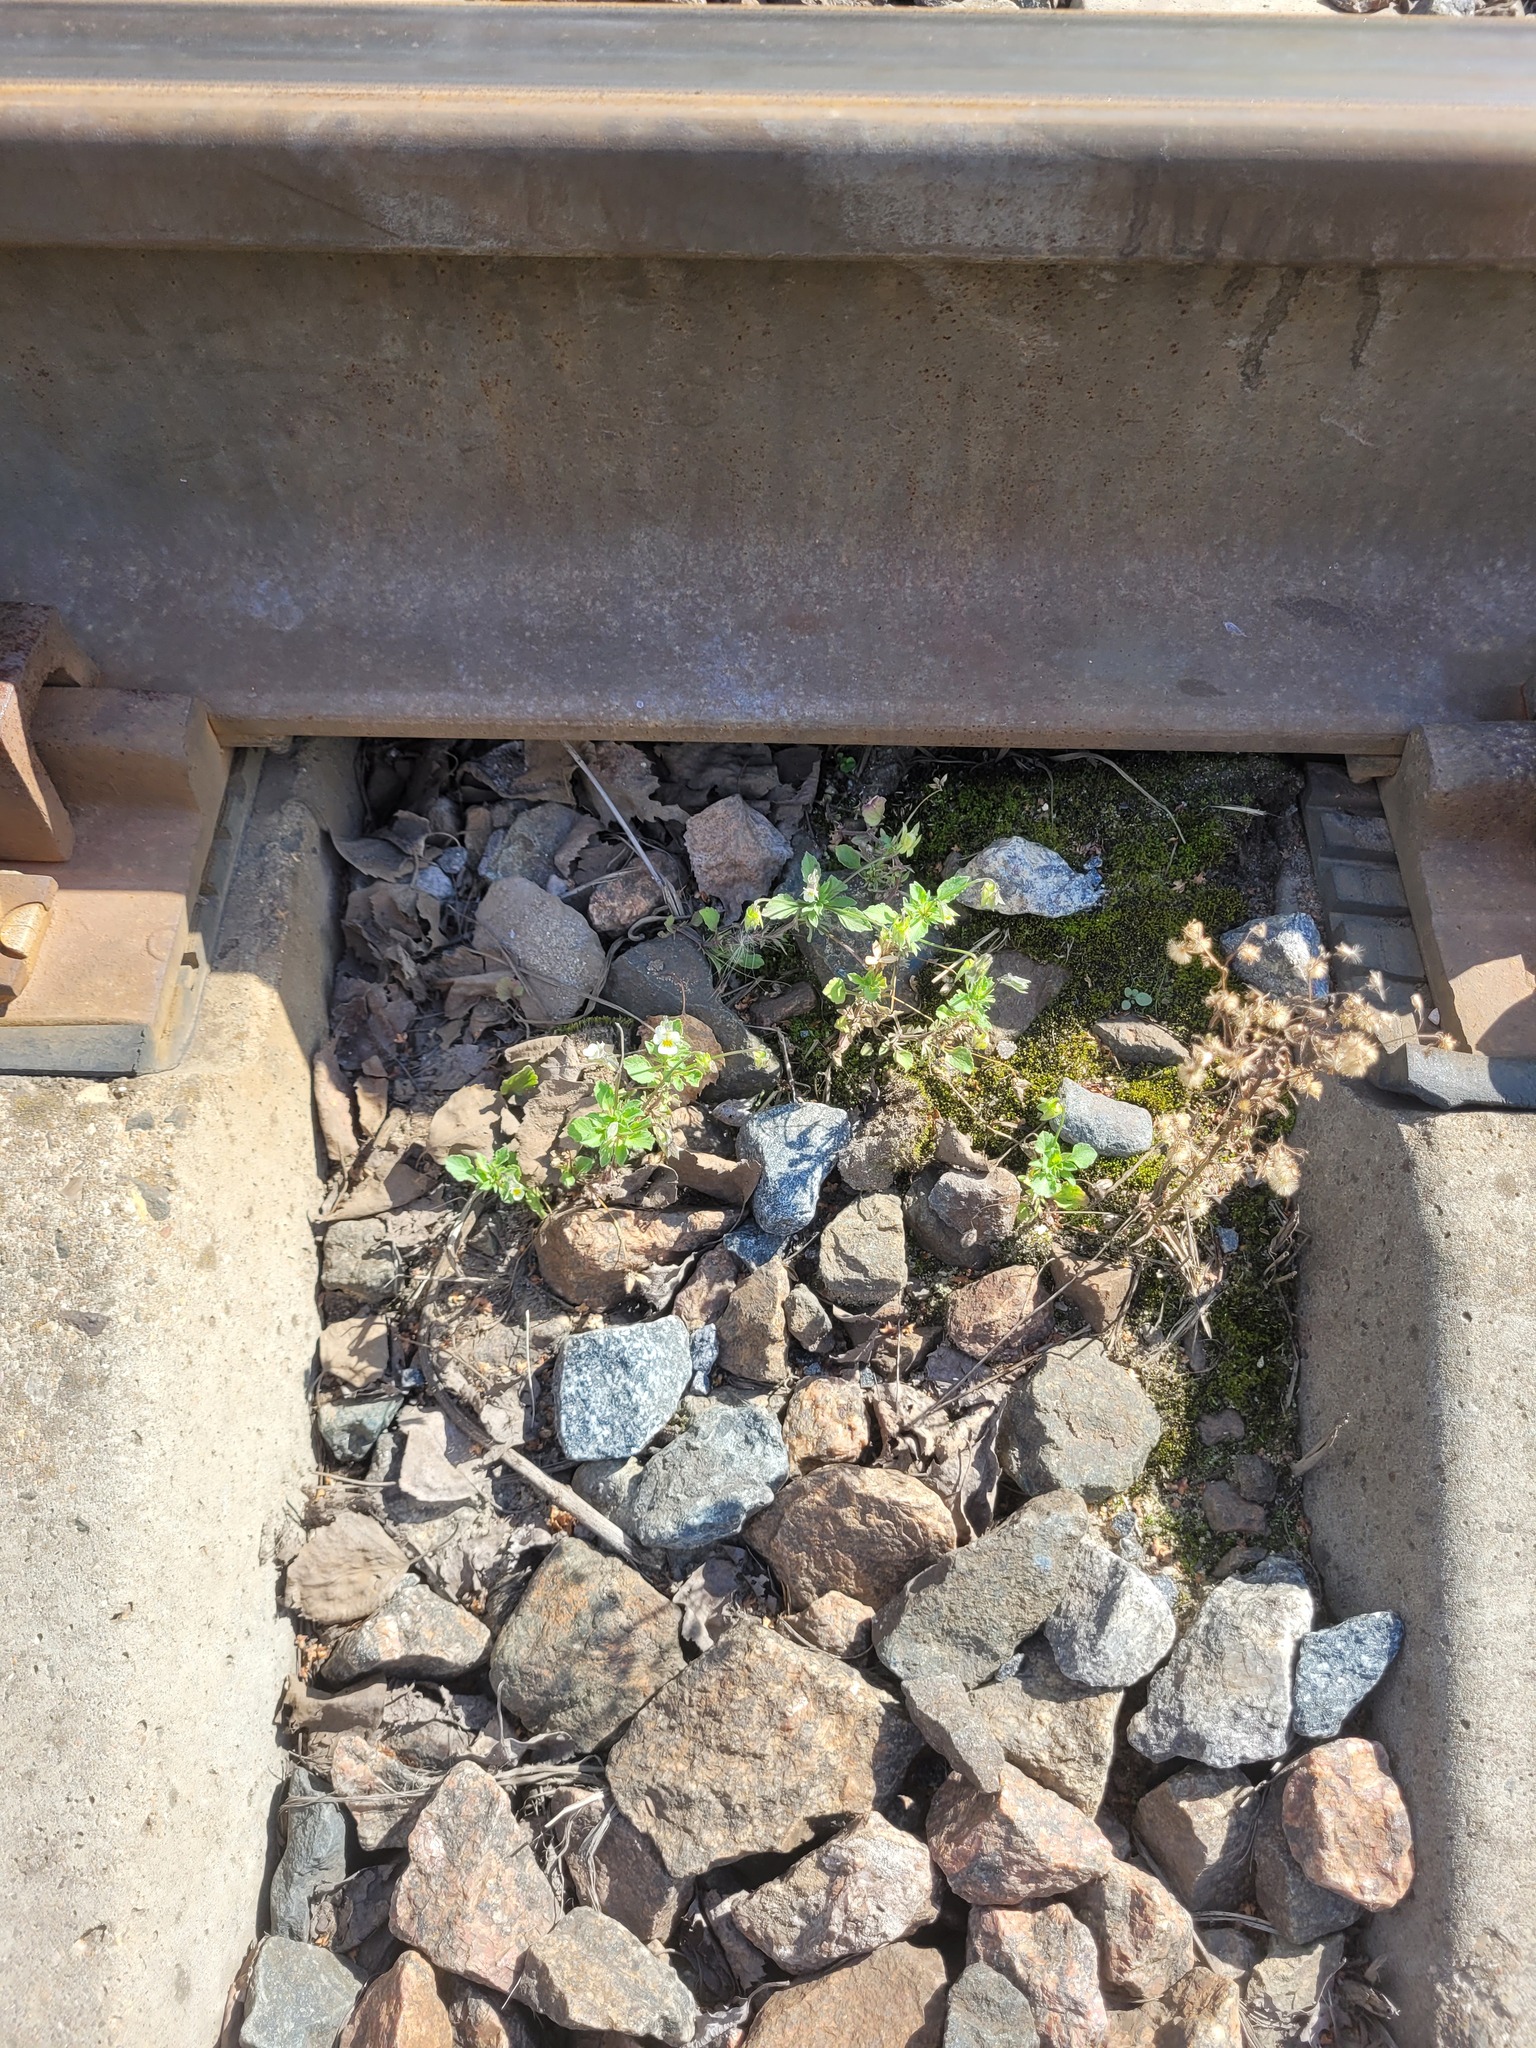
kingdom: Plantae
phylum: Tracheophyta
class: Magnoliopsida
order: Malpighiales
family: Violaceae
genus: Viola
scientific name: Viola arvensis
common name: Field pansy
